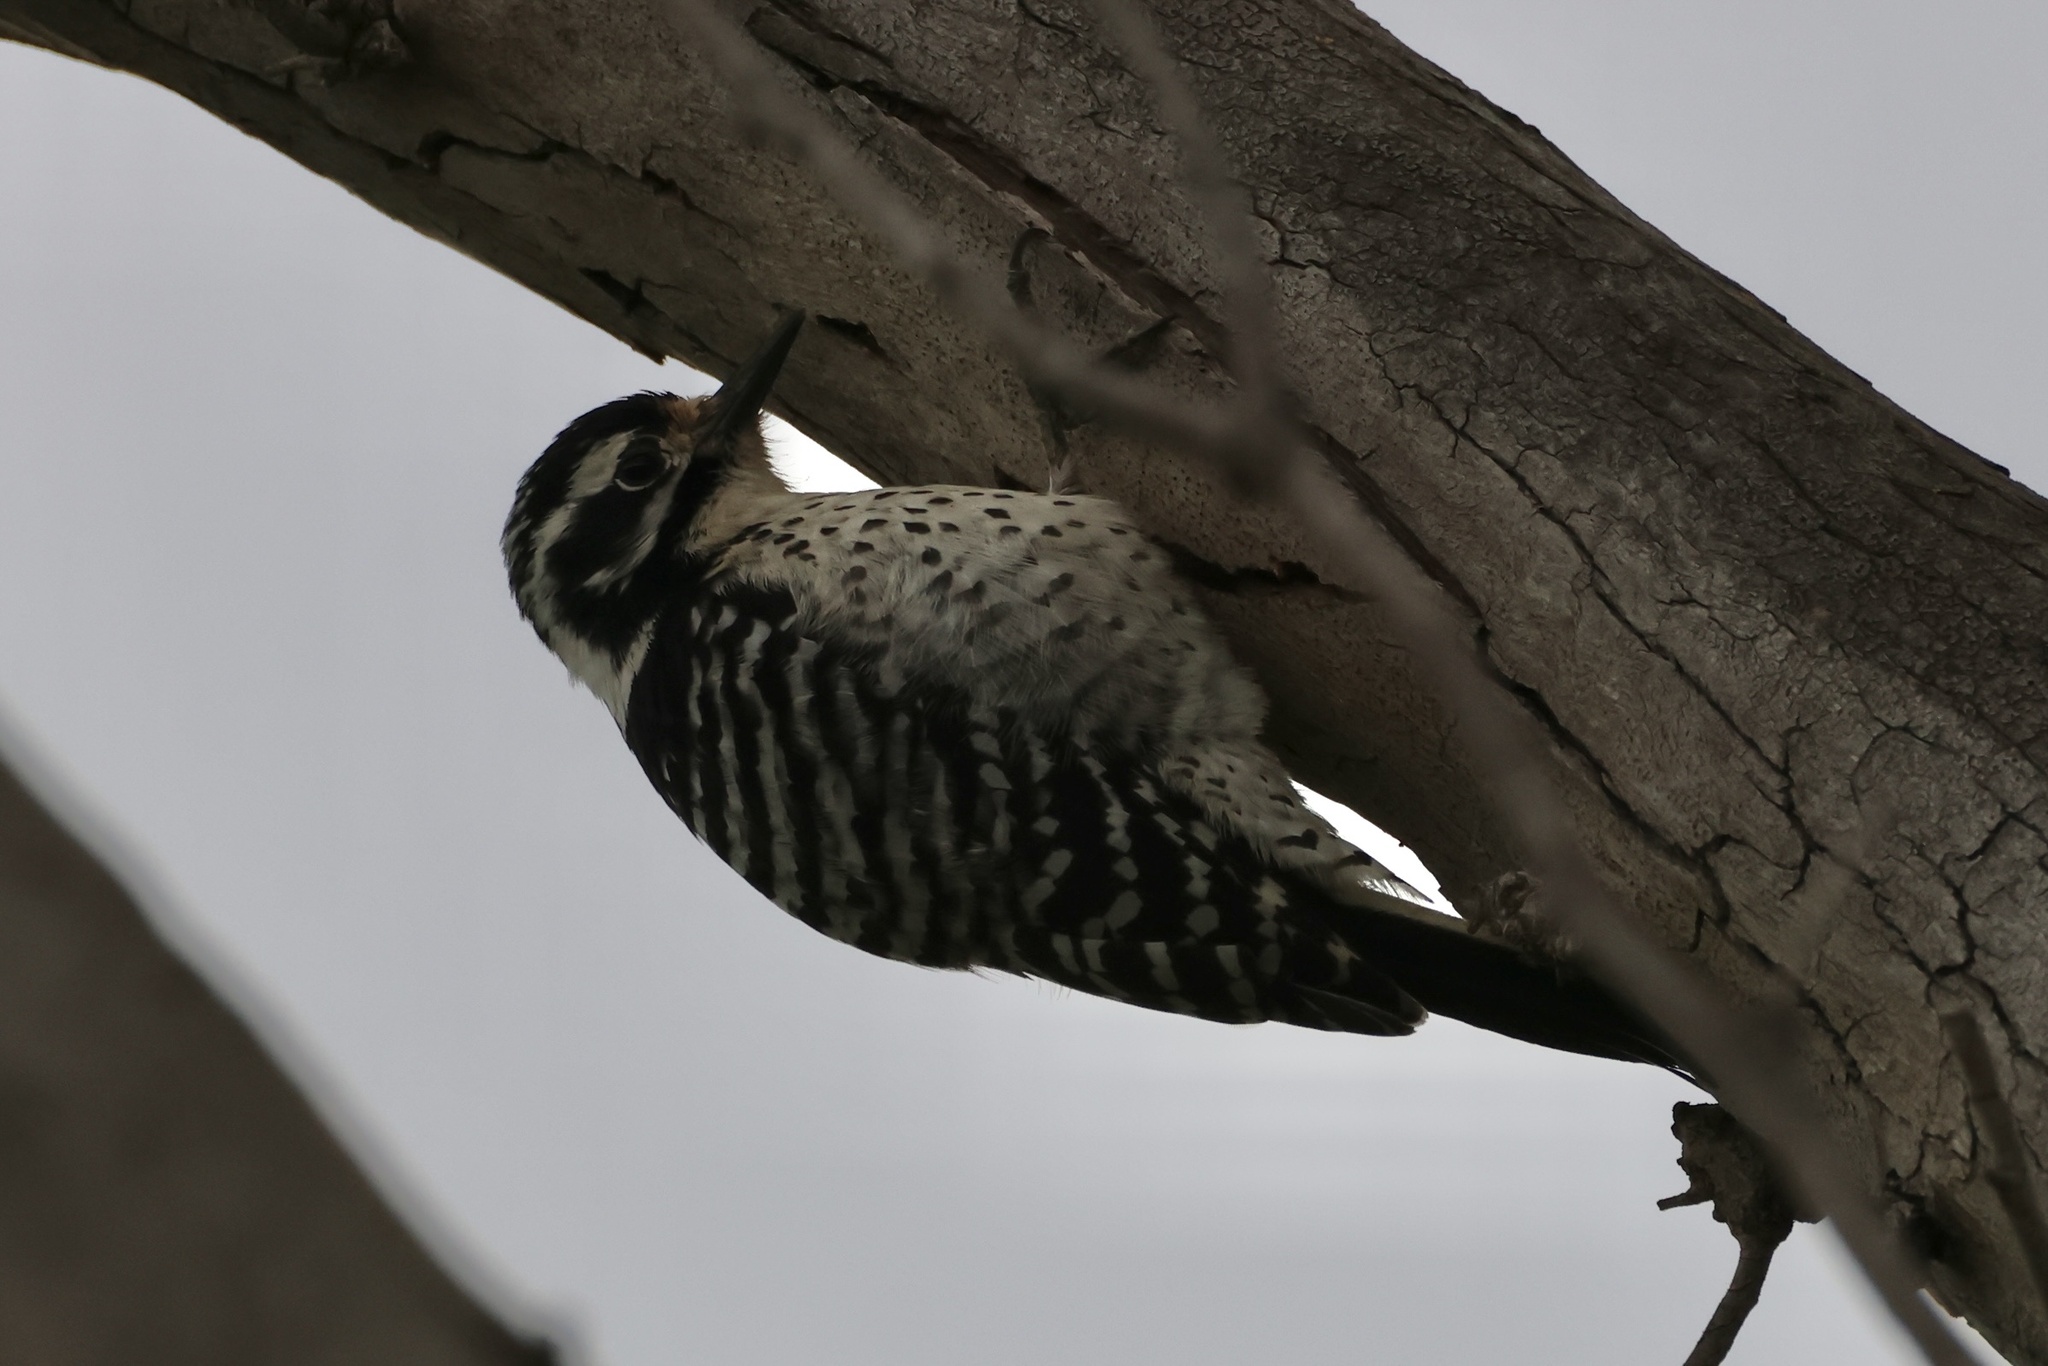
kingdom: Animalia
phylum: Chordata
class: Aves
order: Piciformes
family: Picidae
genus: Dryobates
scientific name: Dryobates nuttallii
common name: Nuttall's woodpecker
